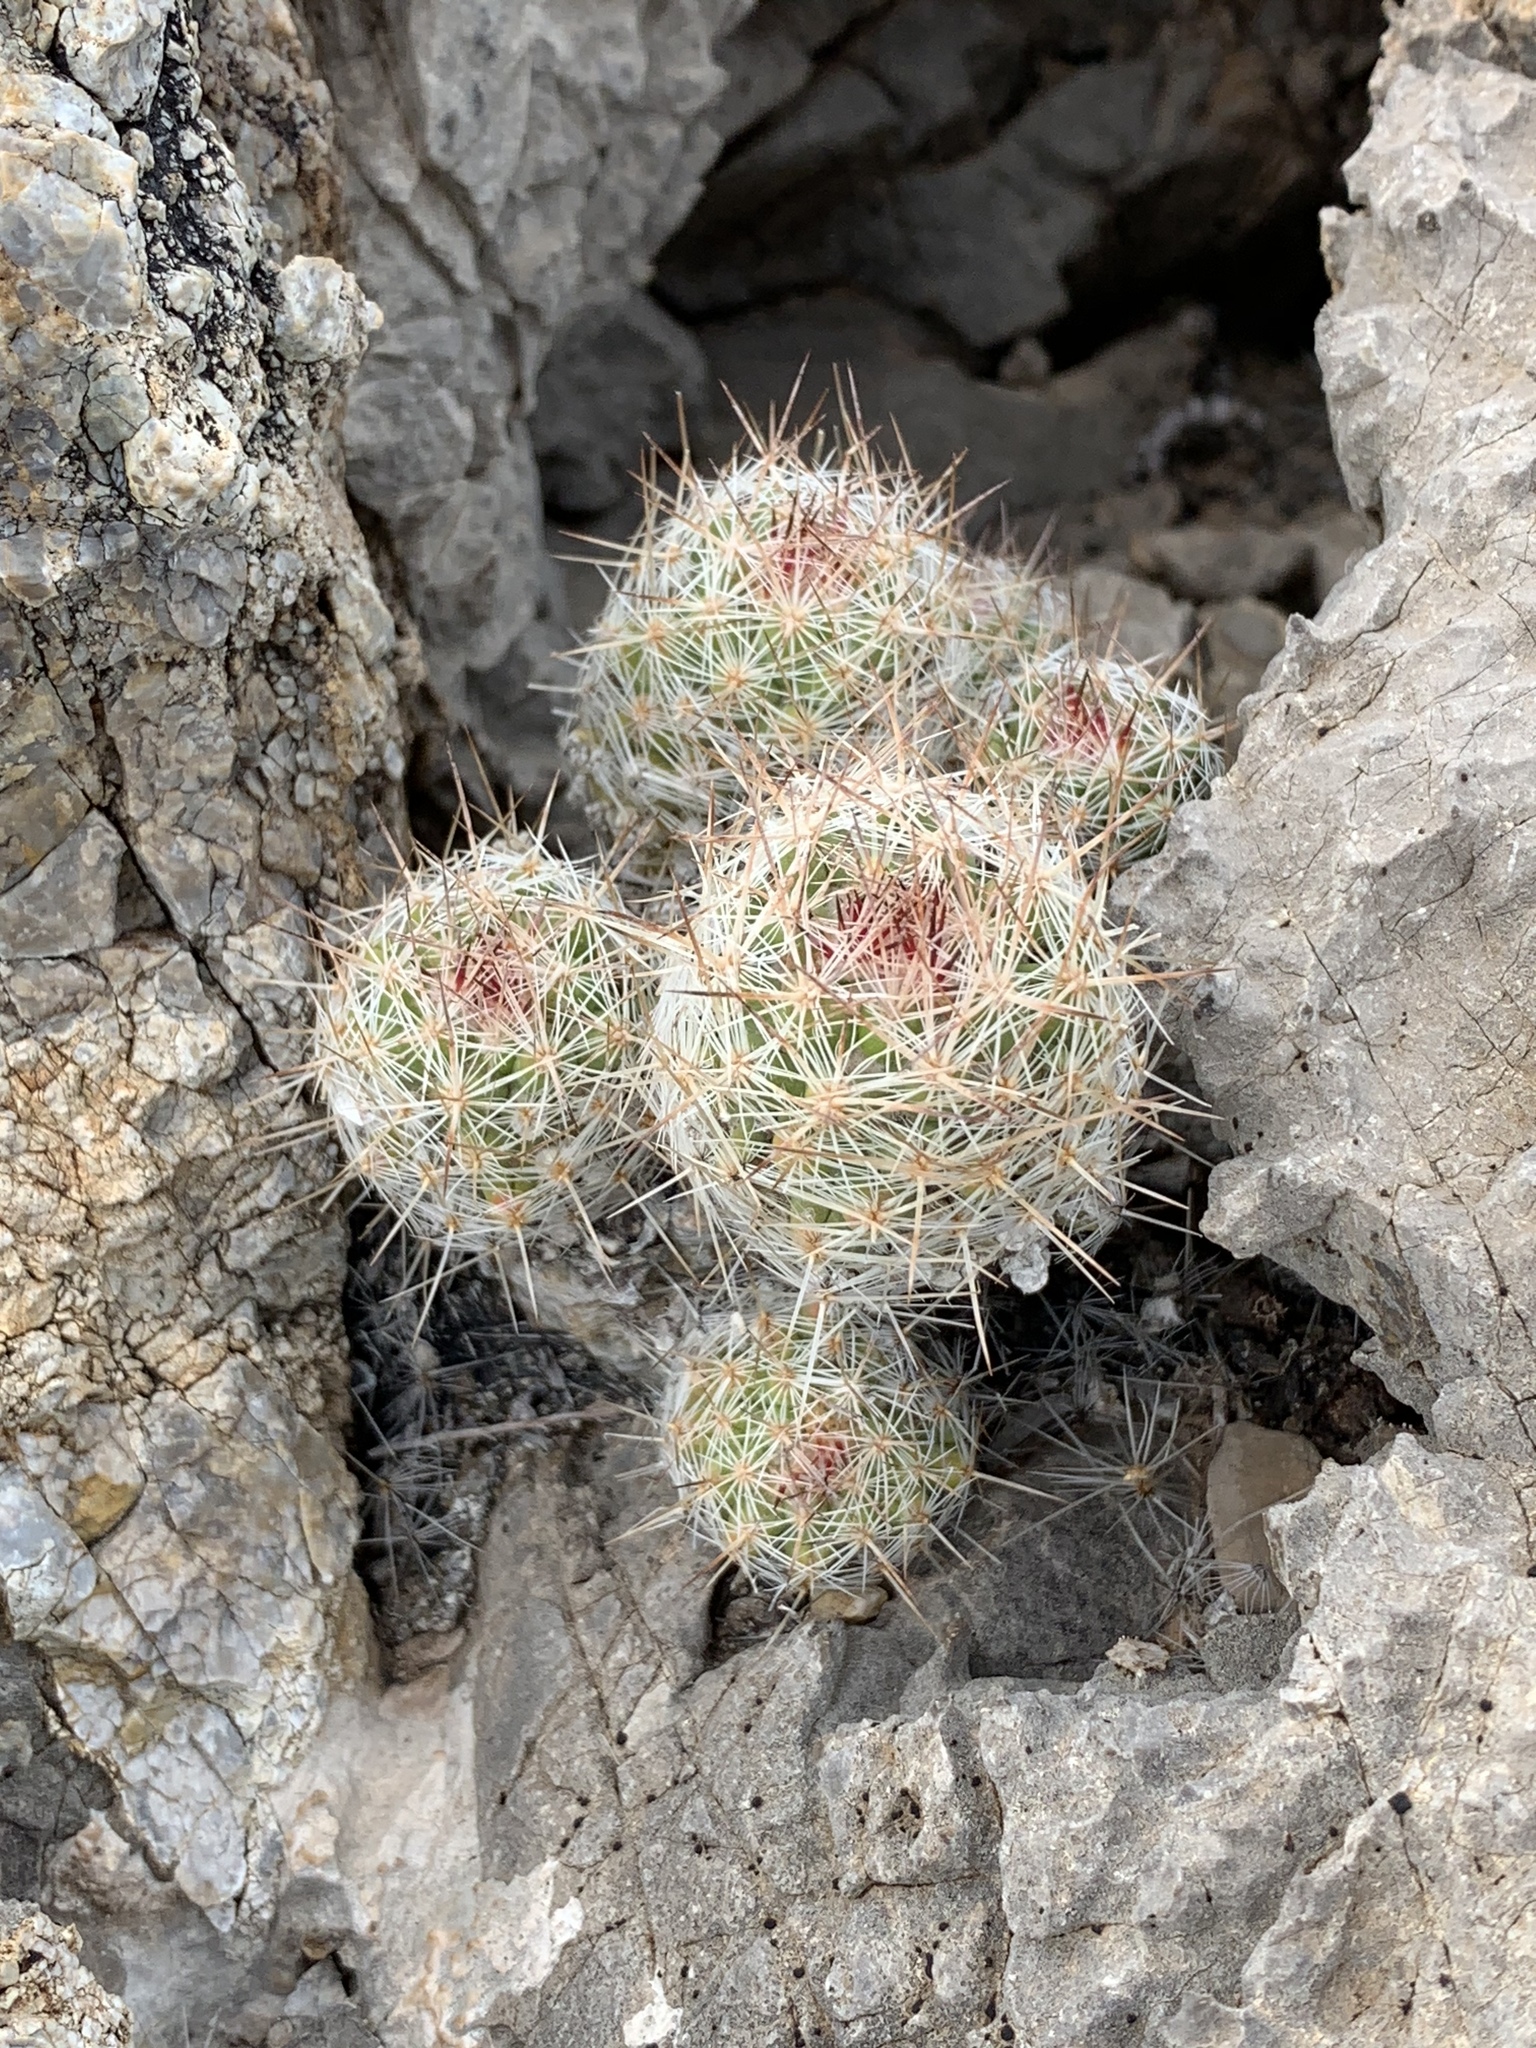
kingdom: Plantae
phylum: Tracheophyta
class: Magnoliopsida
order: Caryophyllales
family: Cactaceae
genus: Pelecyphora
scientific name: Pelecyphora tuberculosa
